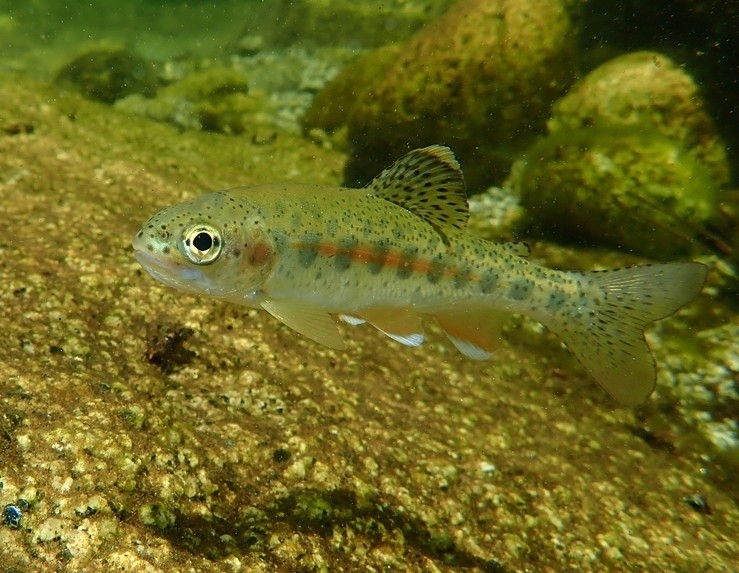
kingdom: Animalia
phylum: Chordata
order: Salmoniformes
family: Salmonidae
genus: Oncorhynchus
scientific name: Oncorhynchus mykiss
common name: Rainbow trout
